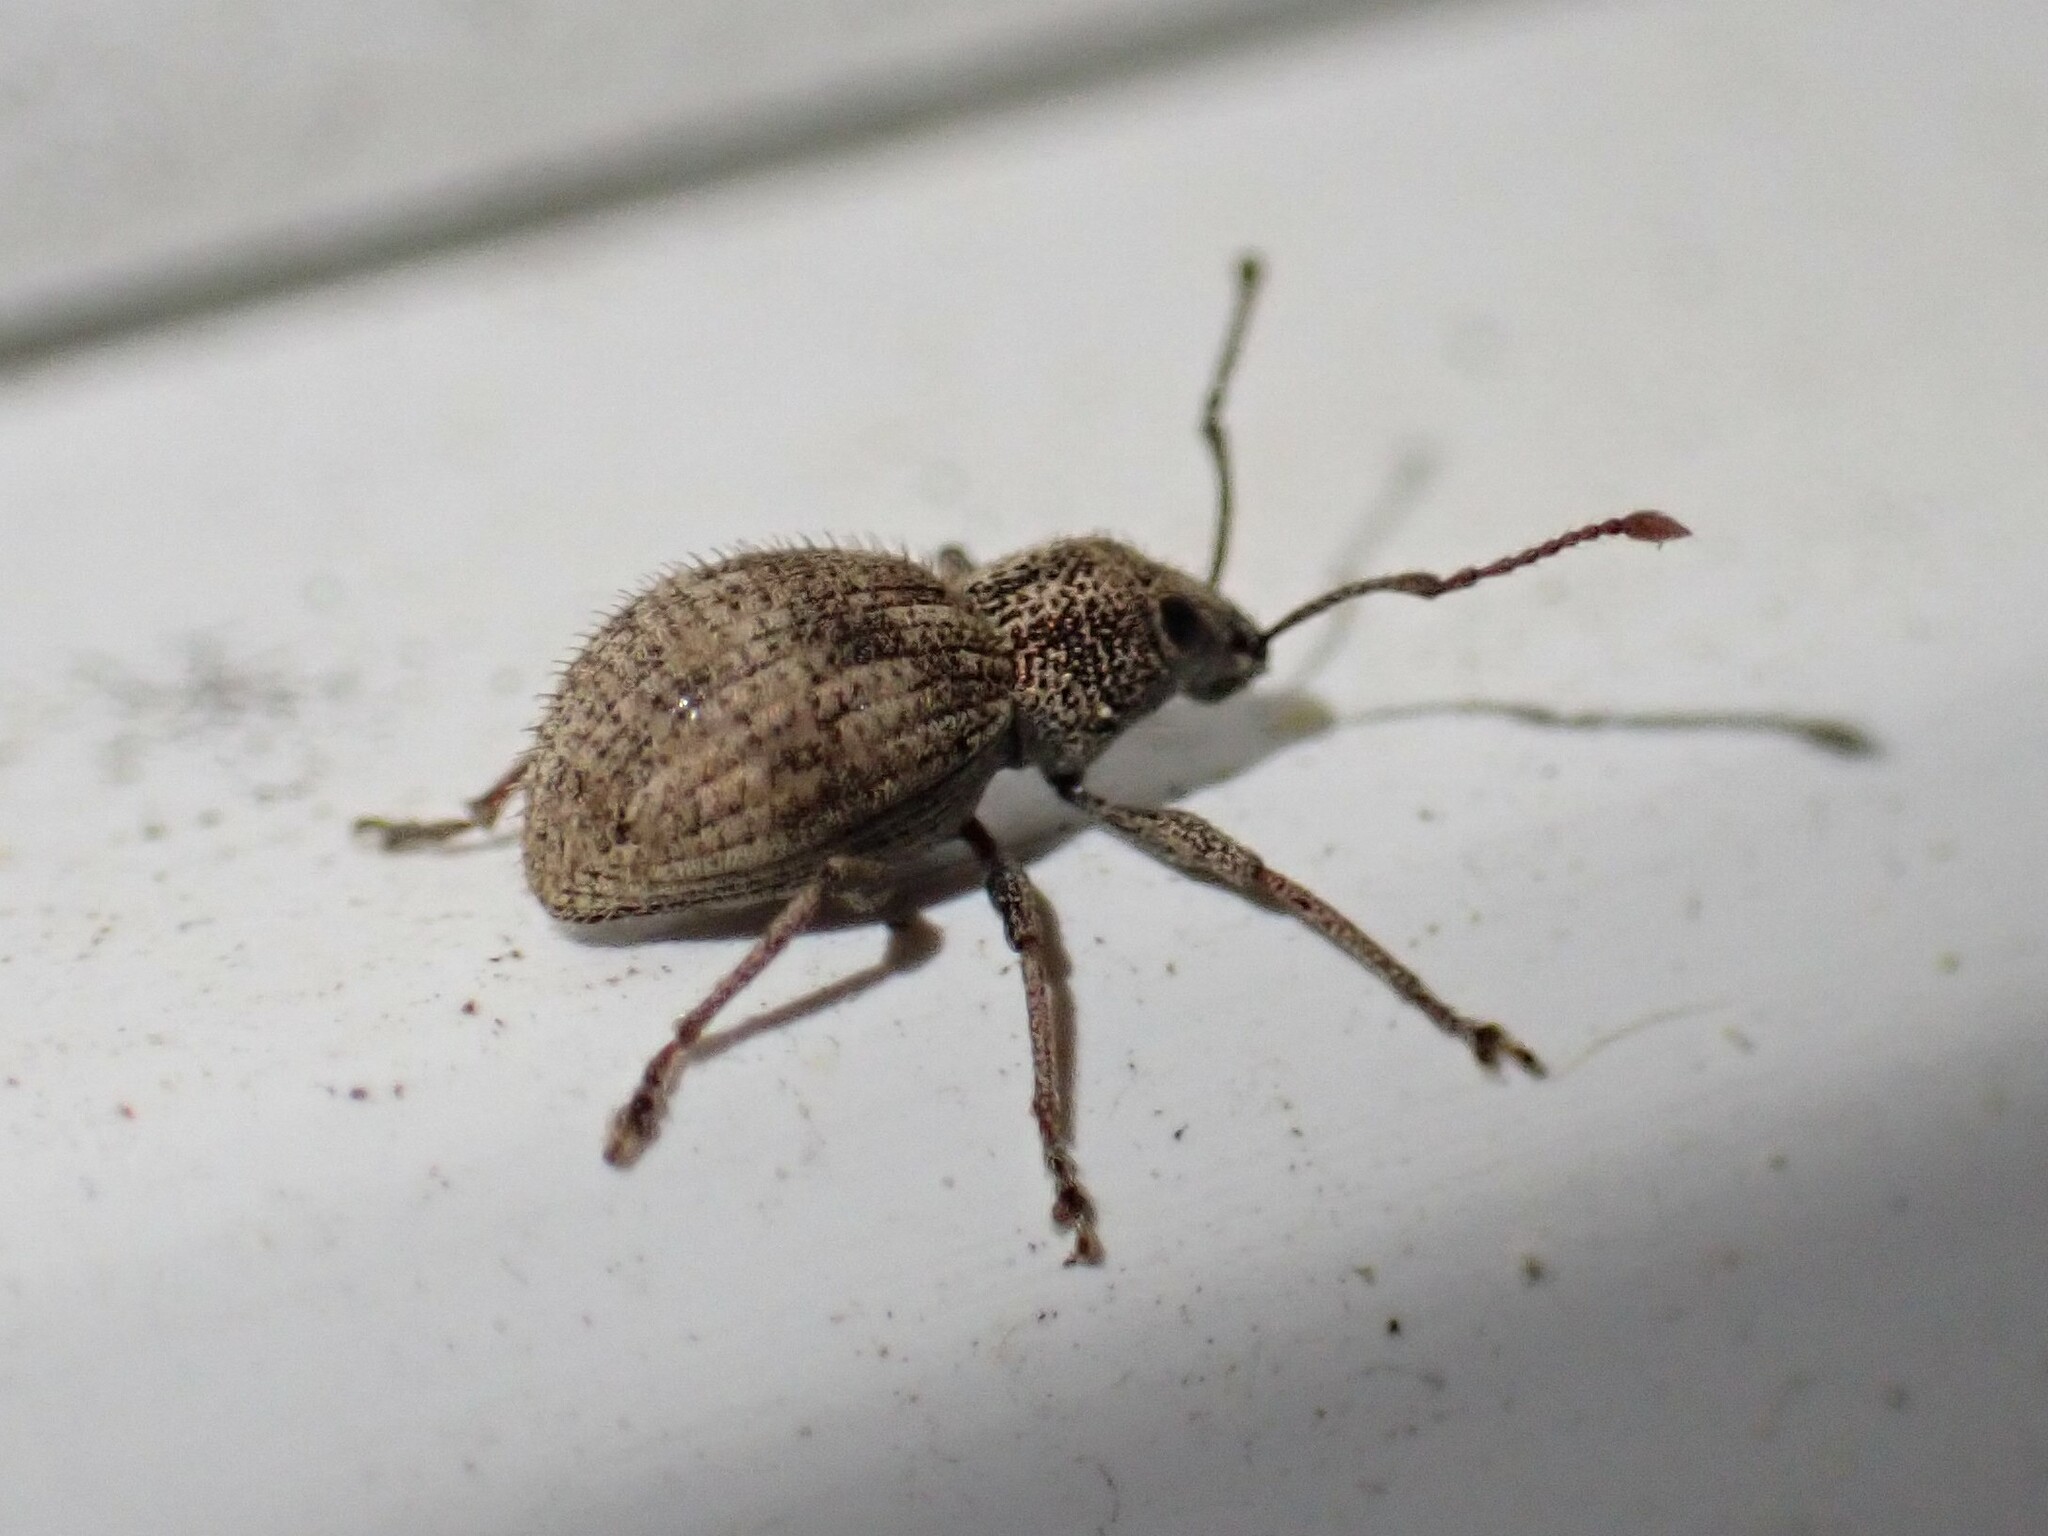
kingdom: Animalia
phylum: Arthropoda
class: Insecta
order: Coleoptera
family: Curculionidae
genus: Calomycterus
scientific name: Calomycterus setarius
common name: Weevil
